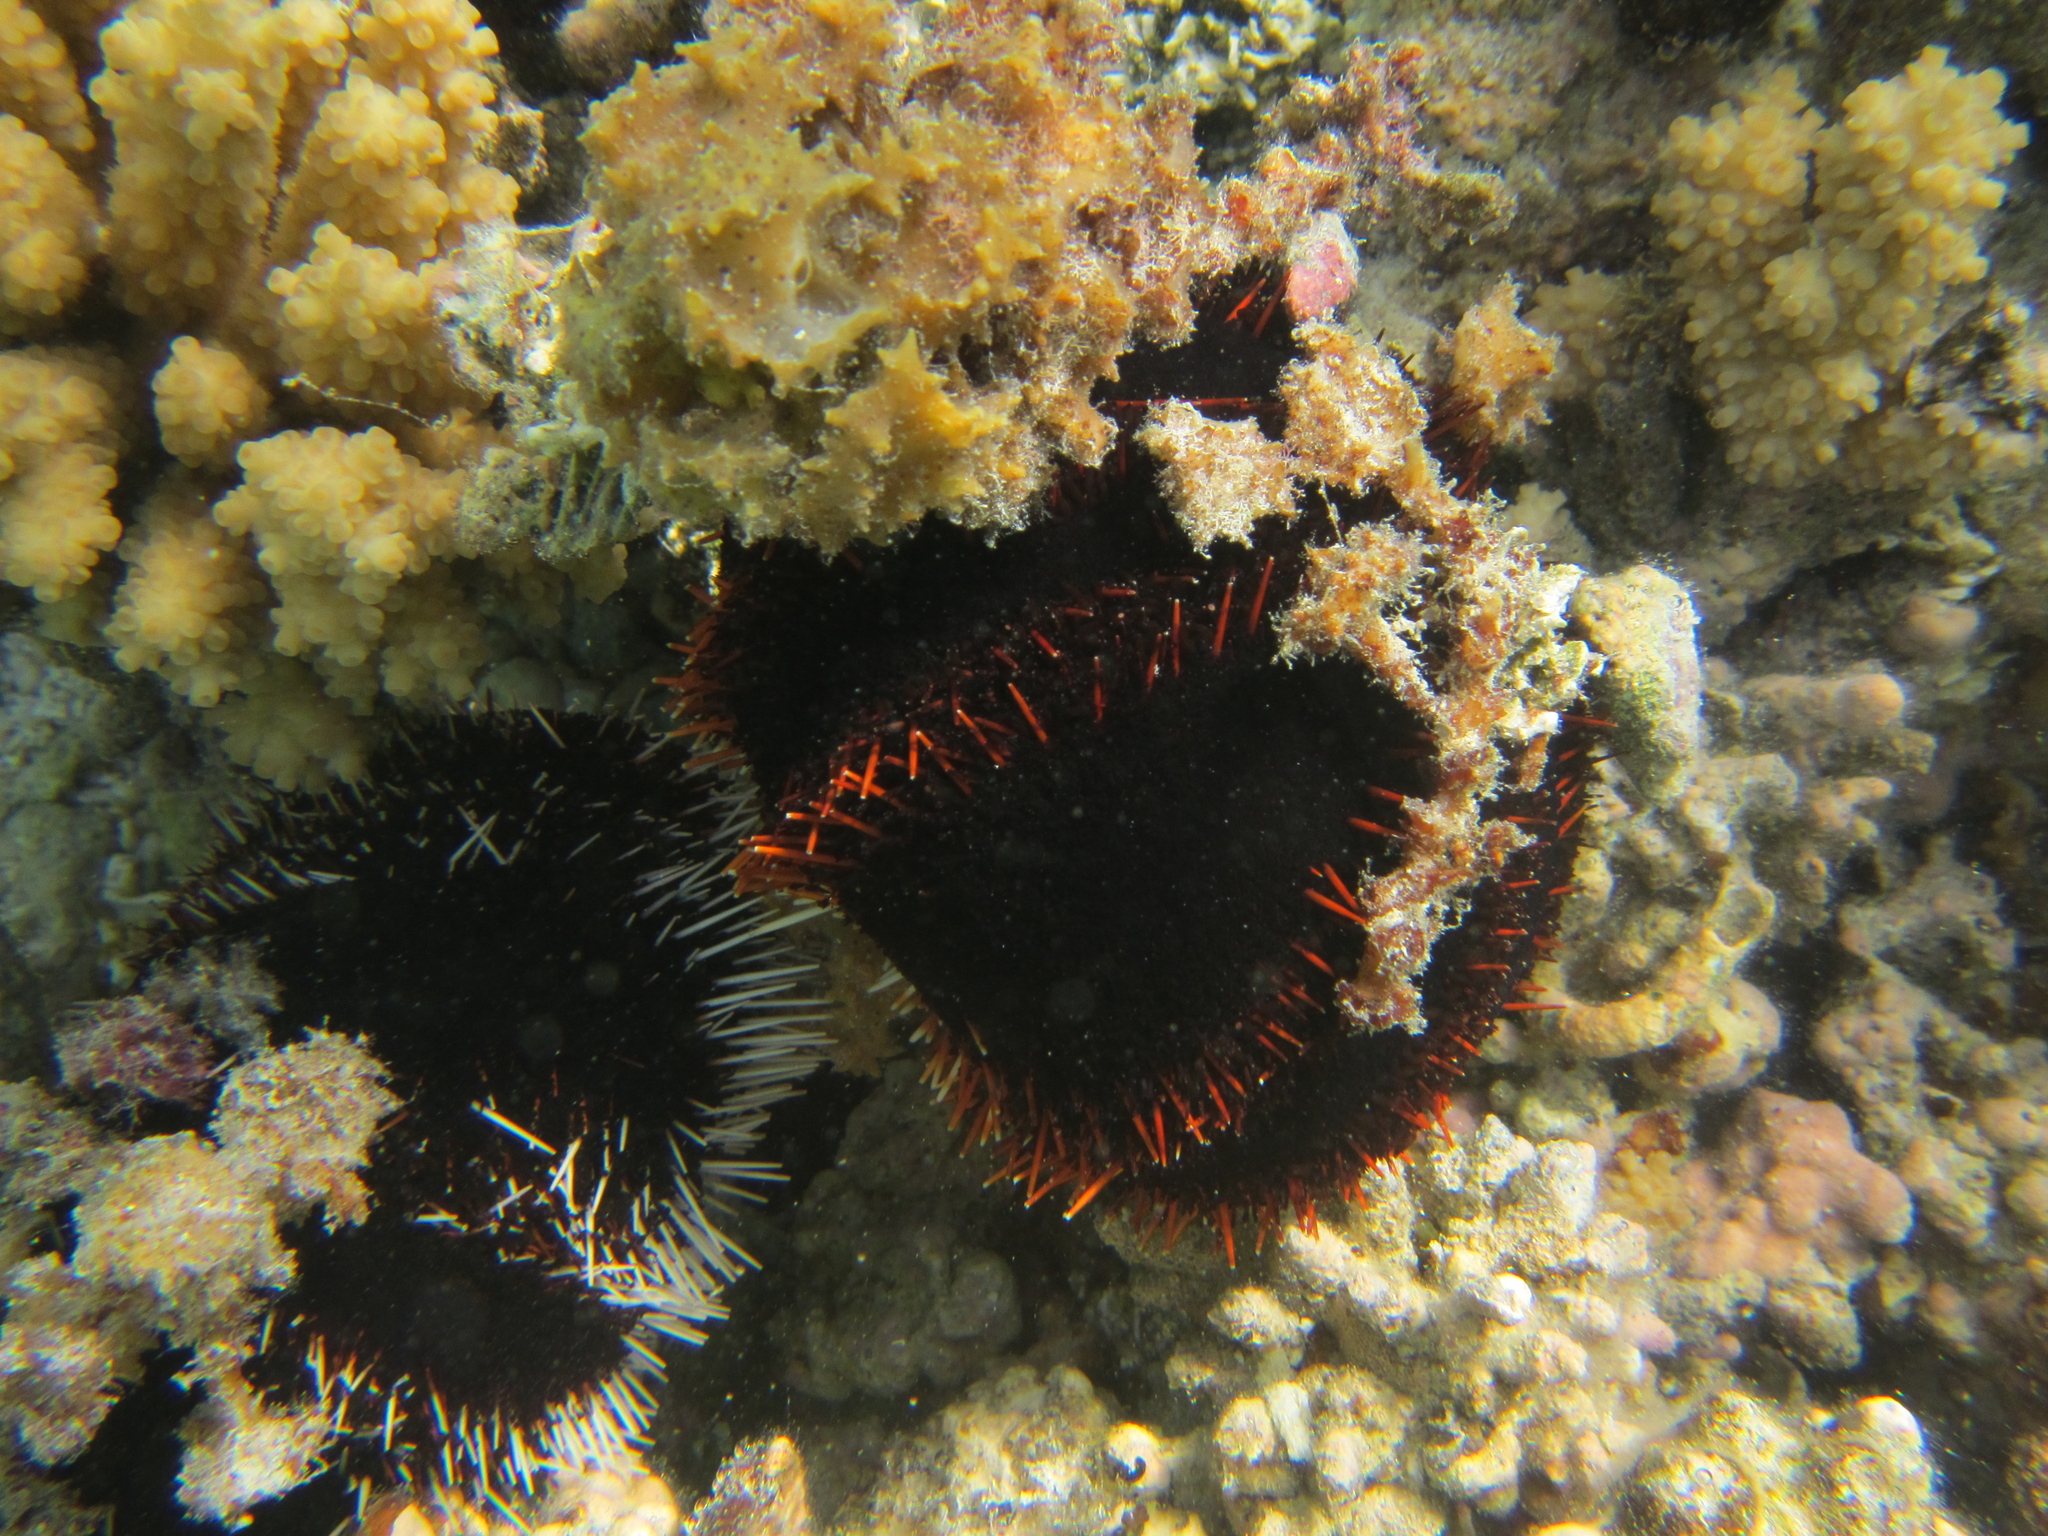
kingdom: Animalia
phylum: Echinodermata
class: Echinoidea
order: Camarodonta
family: Toxopneustidae
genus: Tripneustes
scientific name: Tripneustes gratilla
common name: Bischofsmützenseeigel
